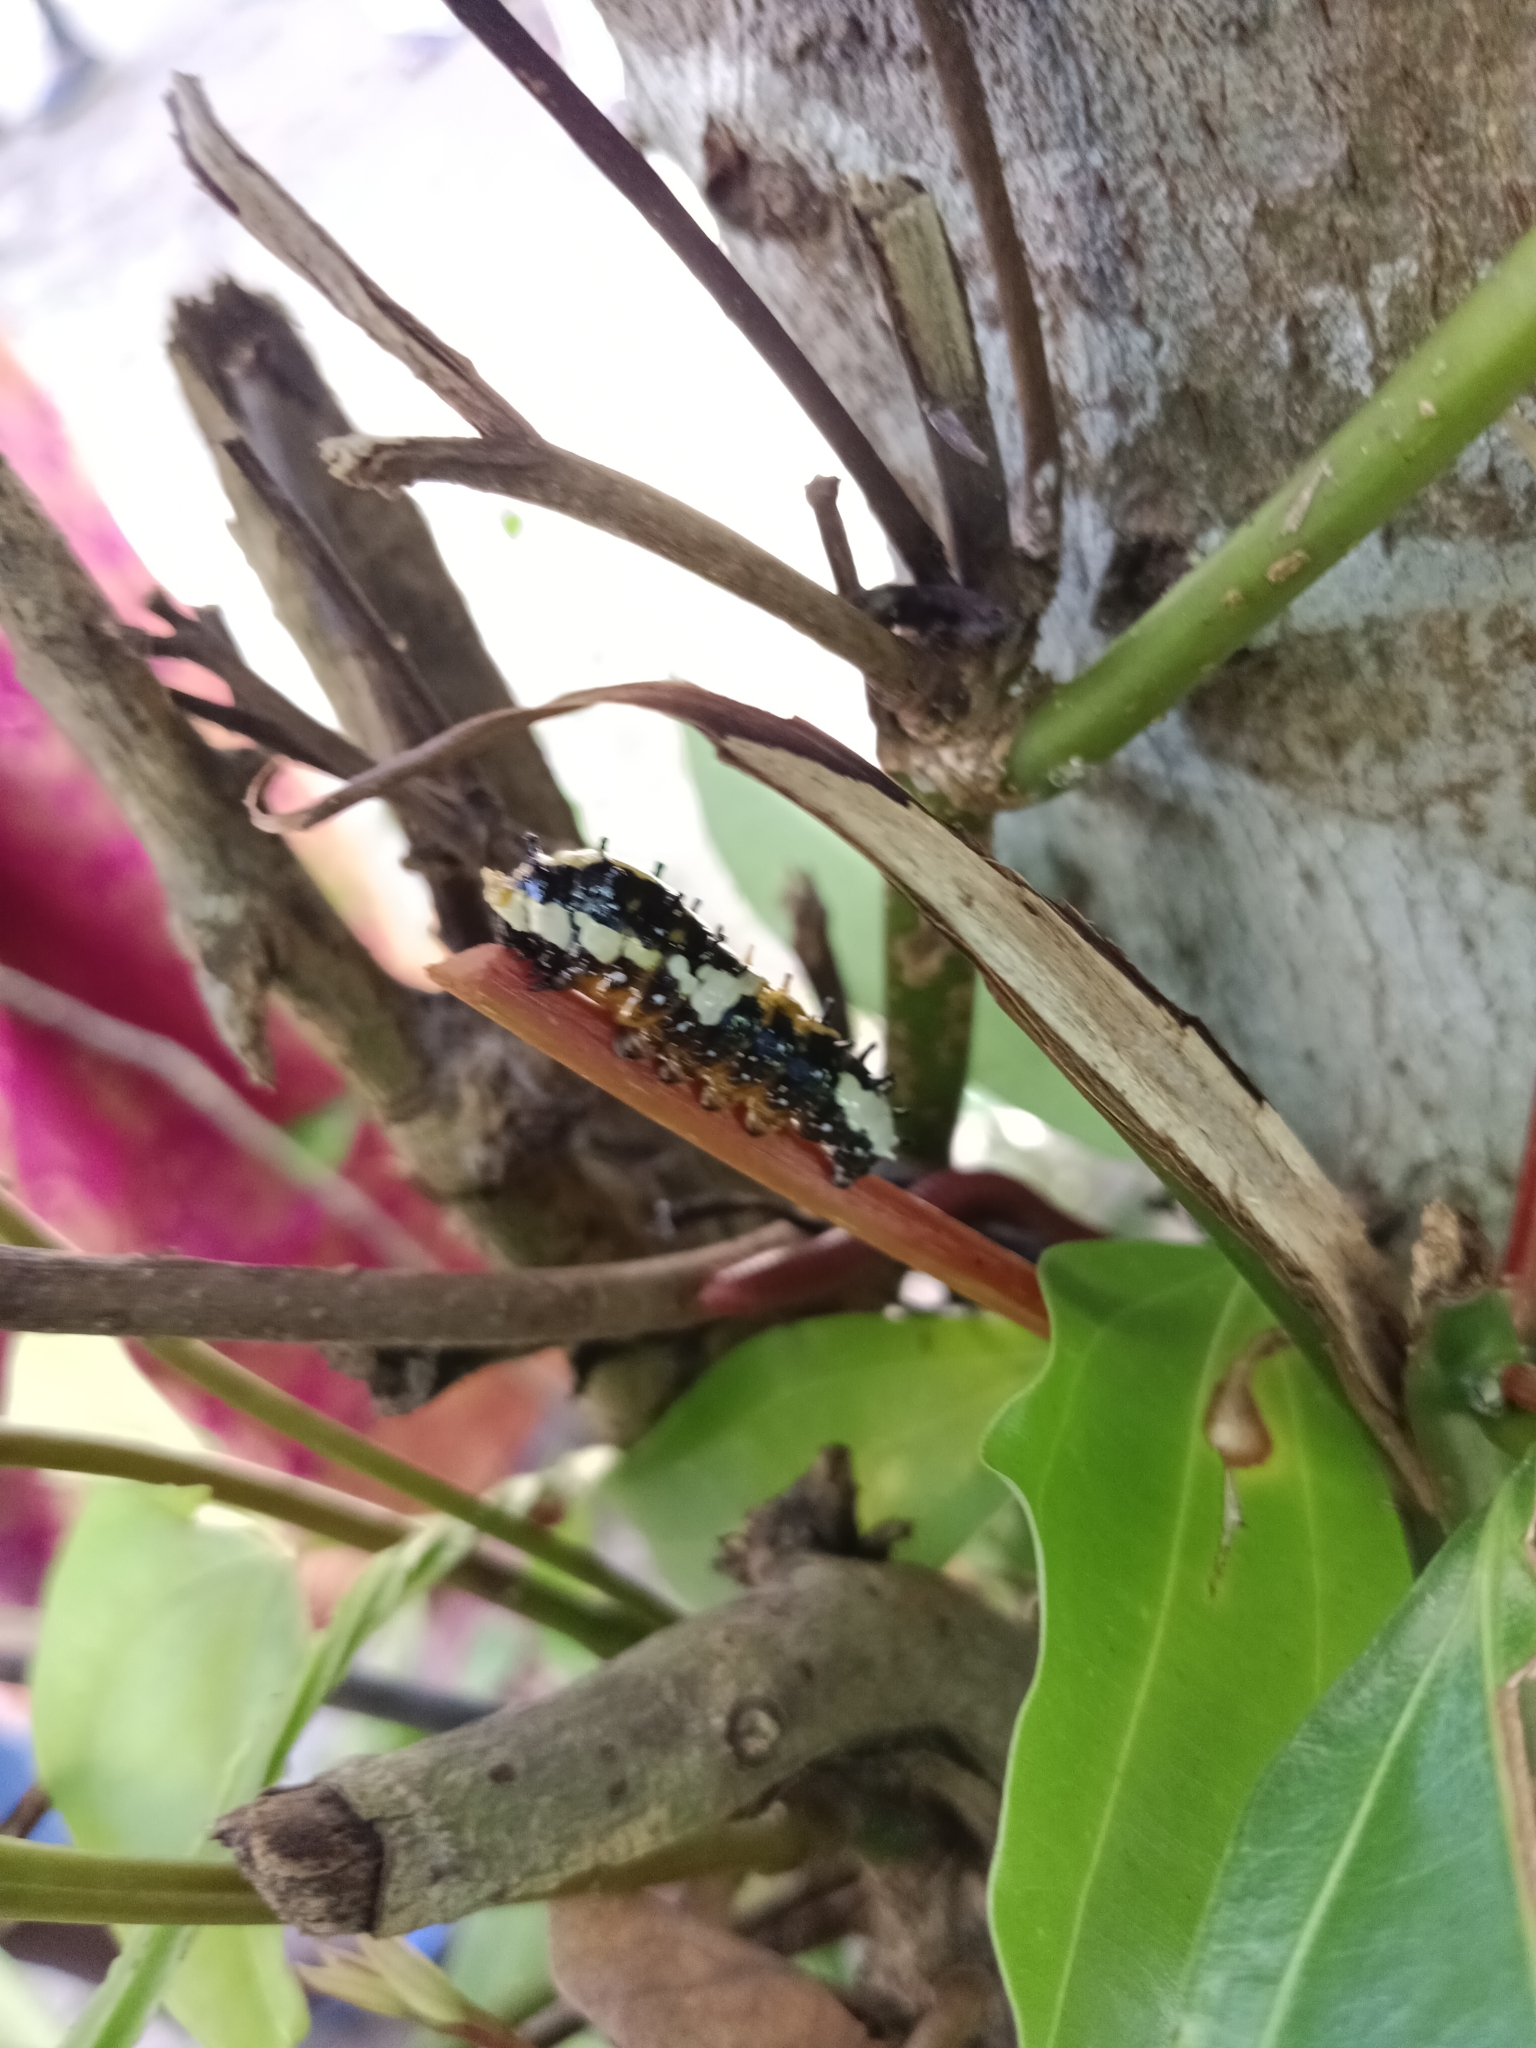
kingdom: Animalia
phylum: Arthropoda
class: Insecta
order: Lepidoptera
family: Papilionidae
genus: Chilasa
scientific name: Chilasa clytia
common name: Common mime
